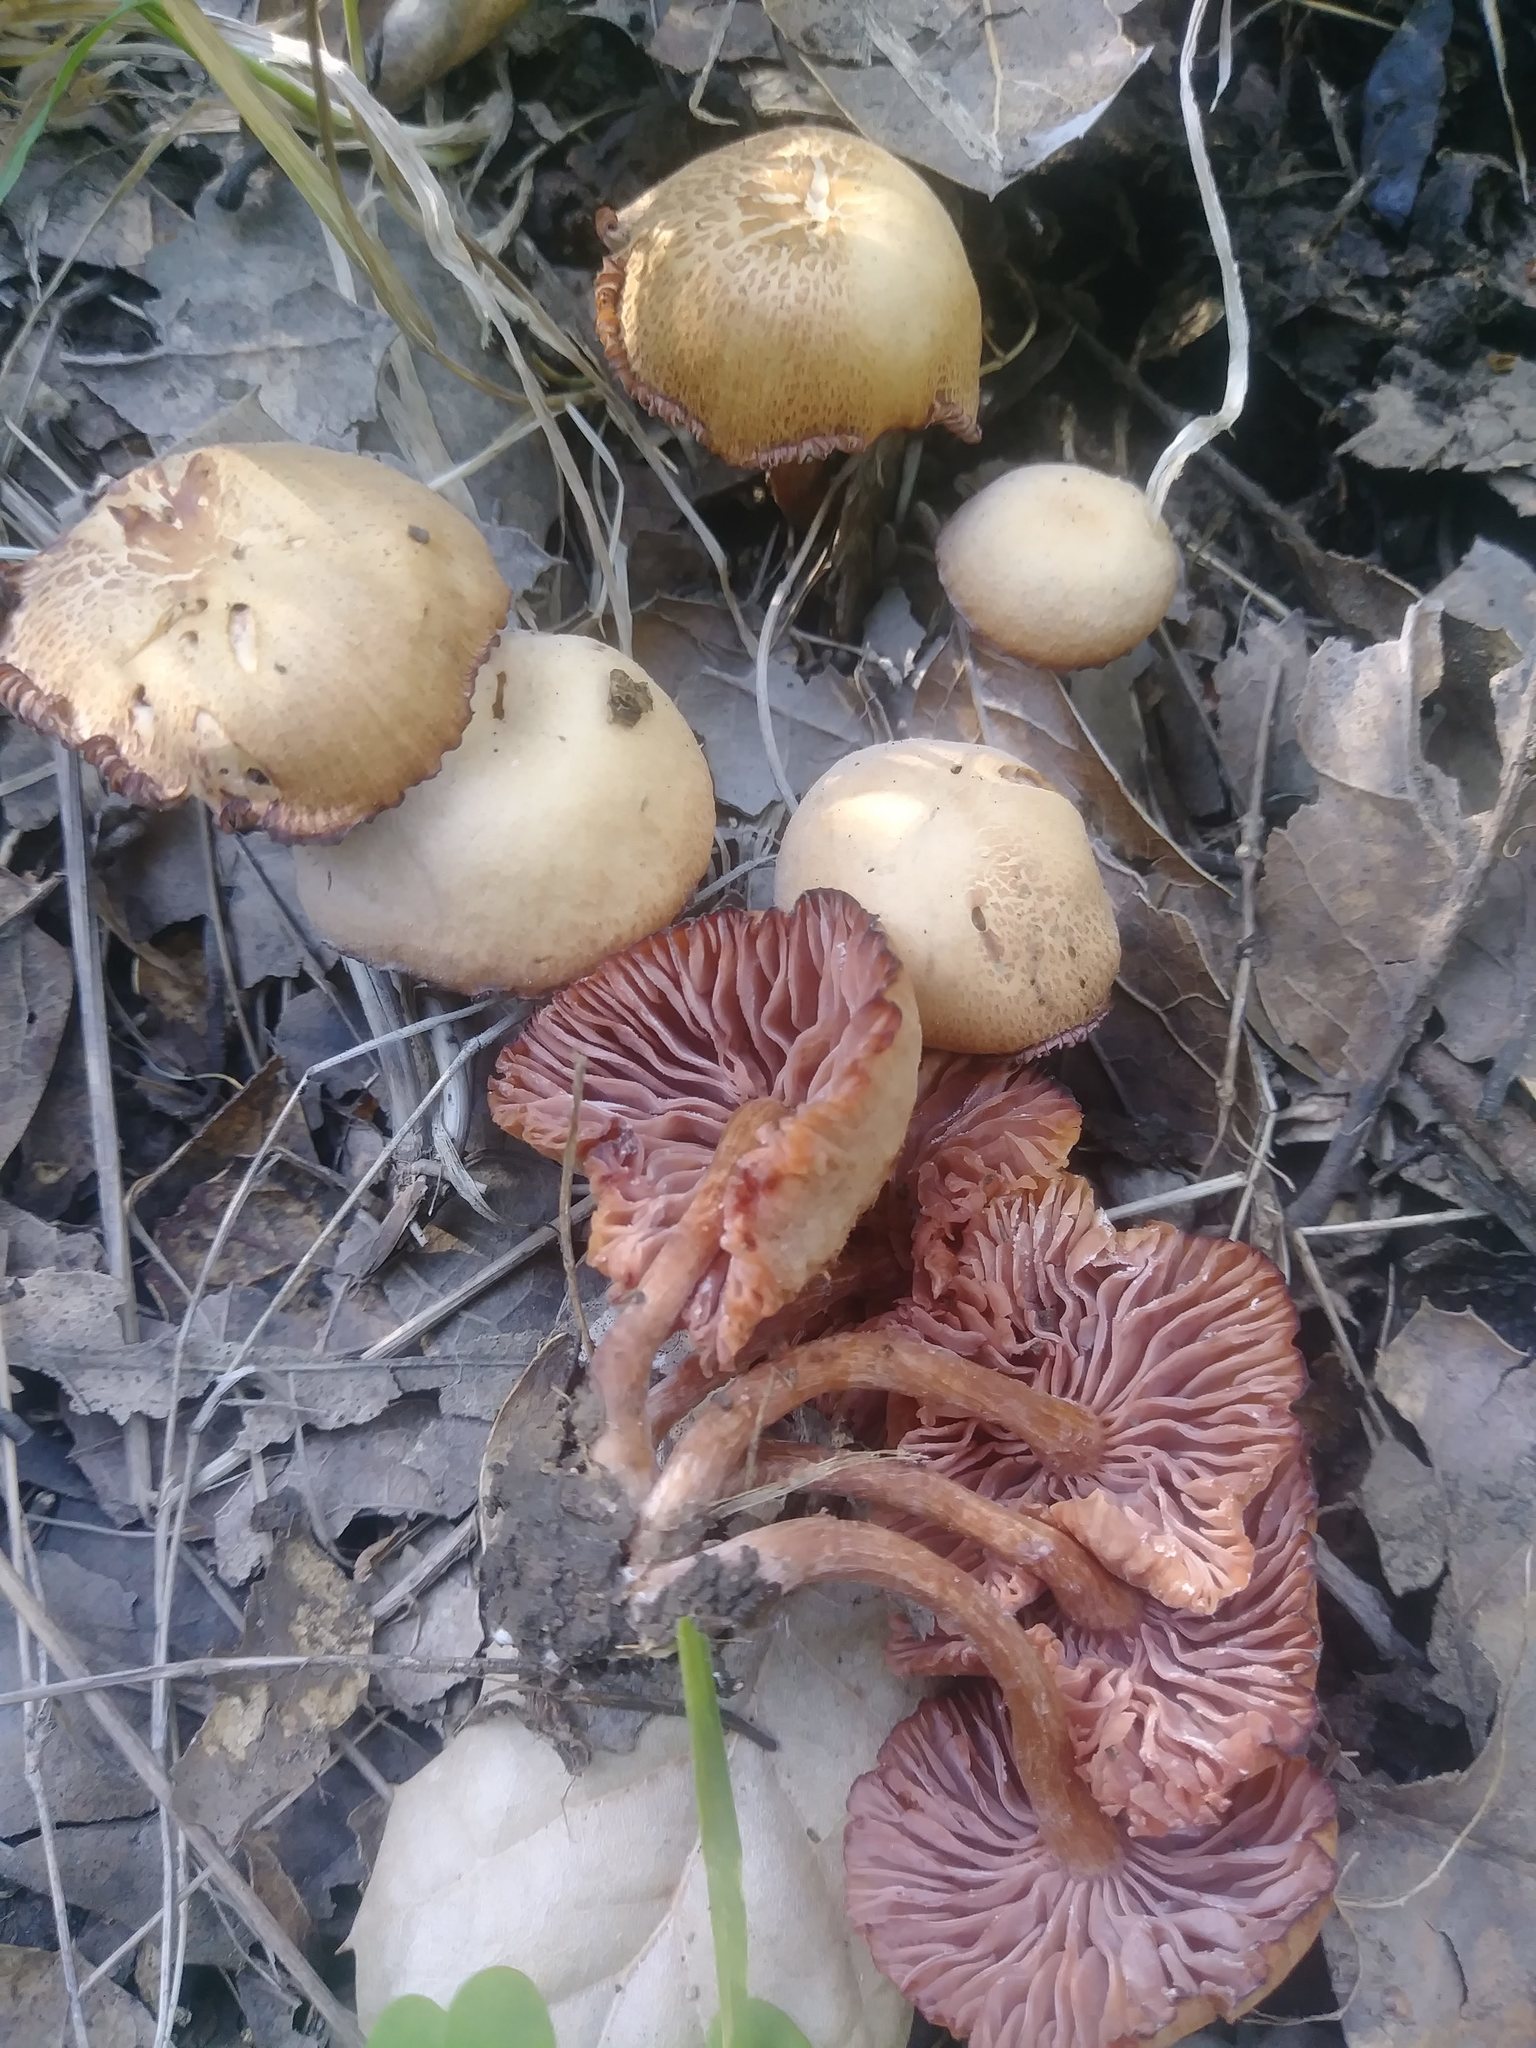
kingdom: Fungi
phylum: Basidiomycota
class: Agaricomycetes
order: Agaricales
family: Hydnangiaceae
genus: Laccaria
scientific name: Laccaria laccata
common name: Deceiver
